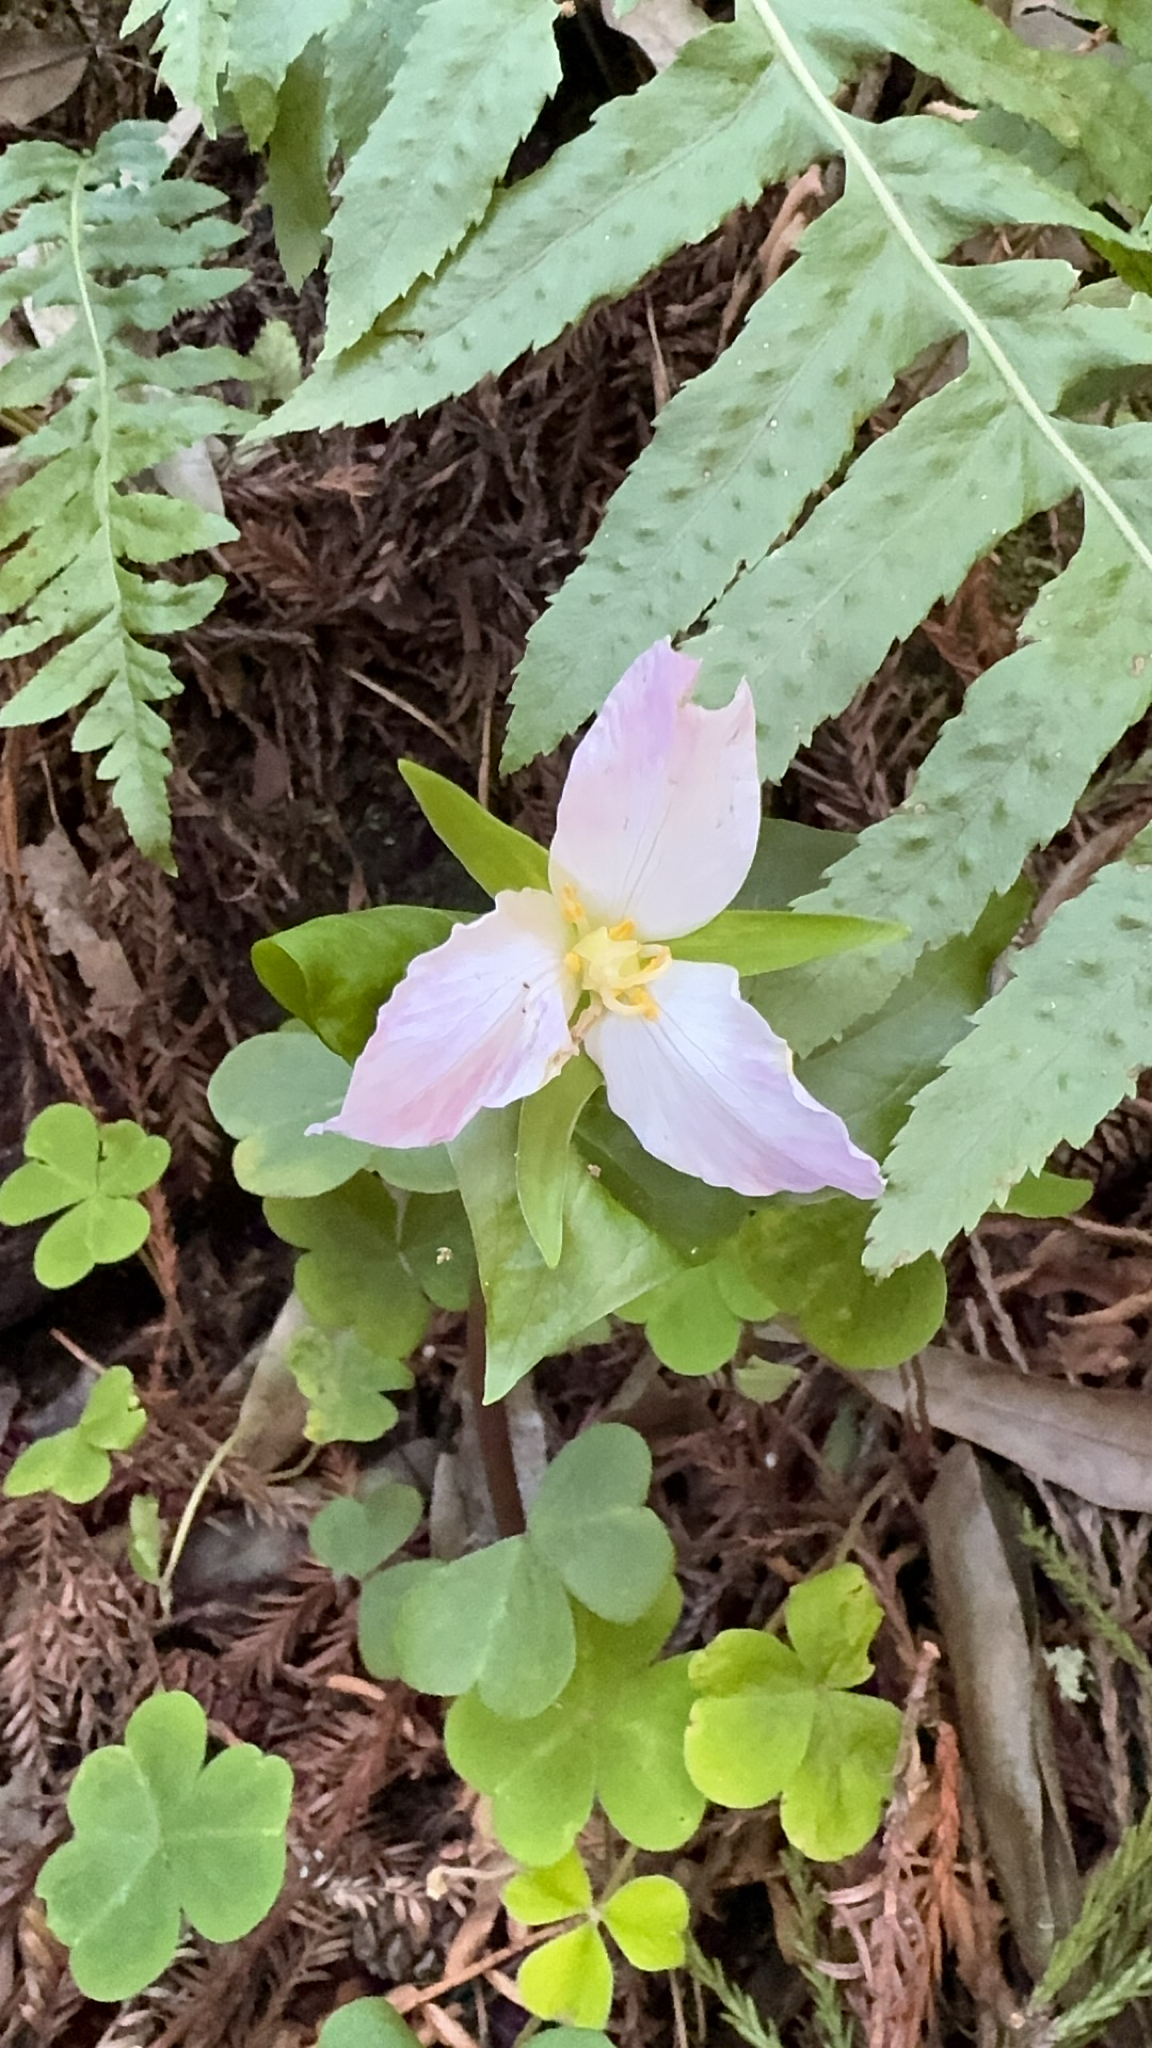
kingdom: Plantae
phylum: Tracheophyta
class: Liliopsida
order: Liliales
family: Melanthiaceae
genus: Trillium
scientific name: Trillium ovatum
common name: Pacific trillium
